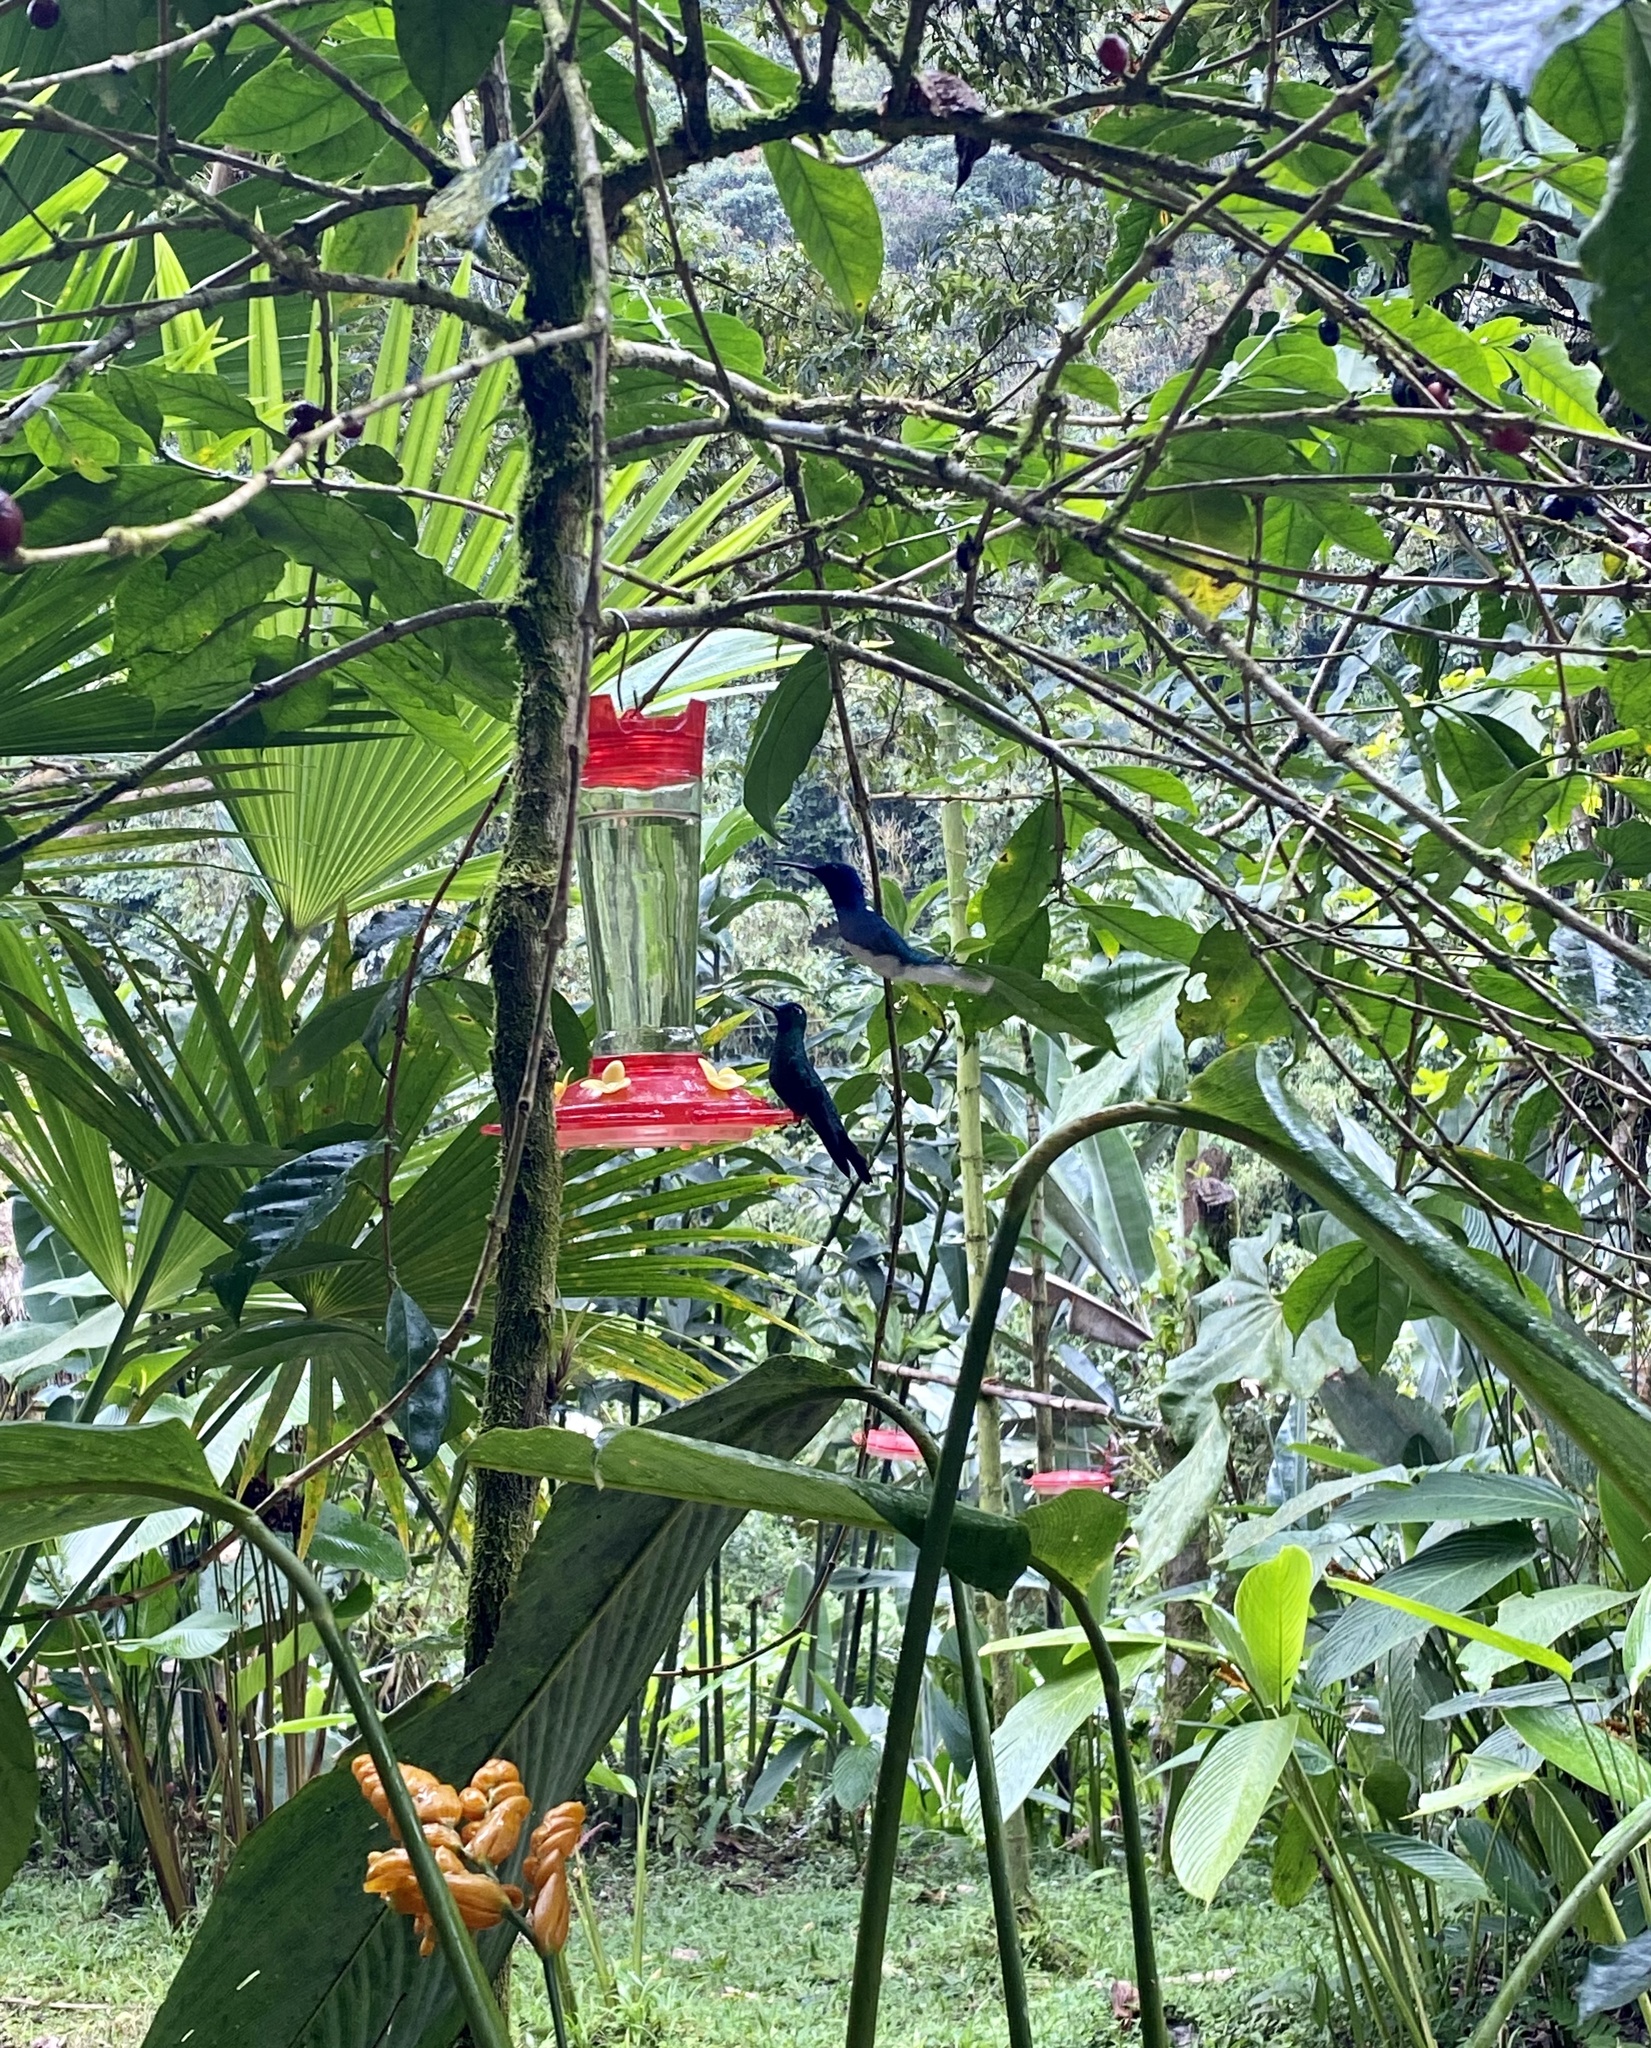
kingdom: Animalia
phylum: Chordata
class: Aves
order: Apodiformes
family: Trochilidae
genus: Florisuga
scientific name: Florisuga mellivora
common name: White-necked jacobin
